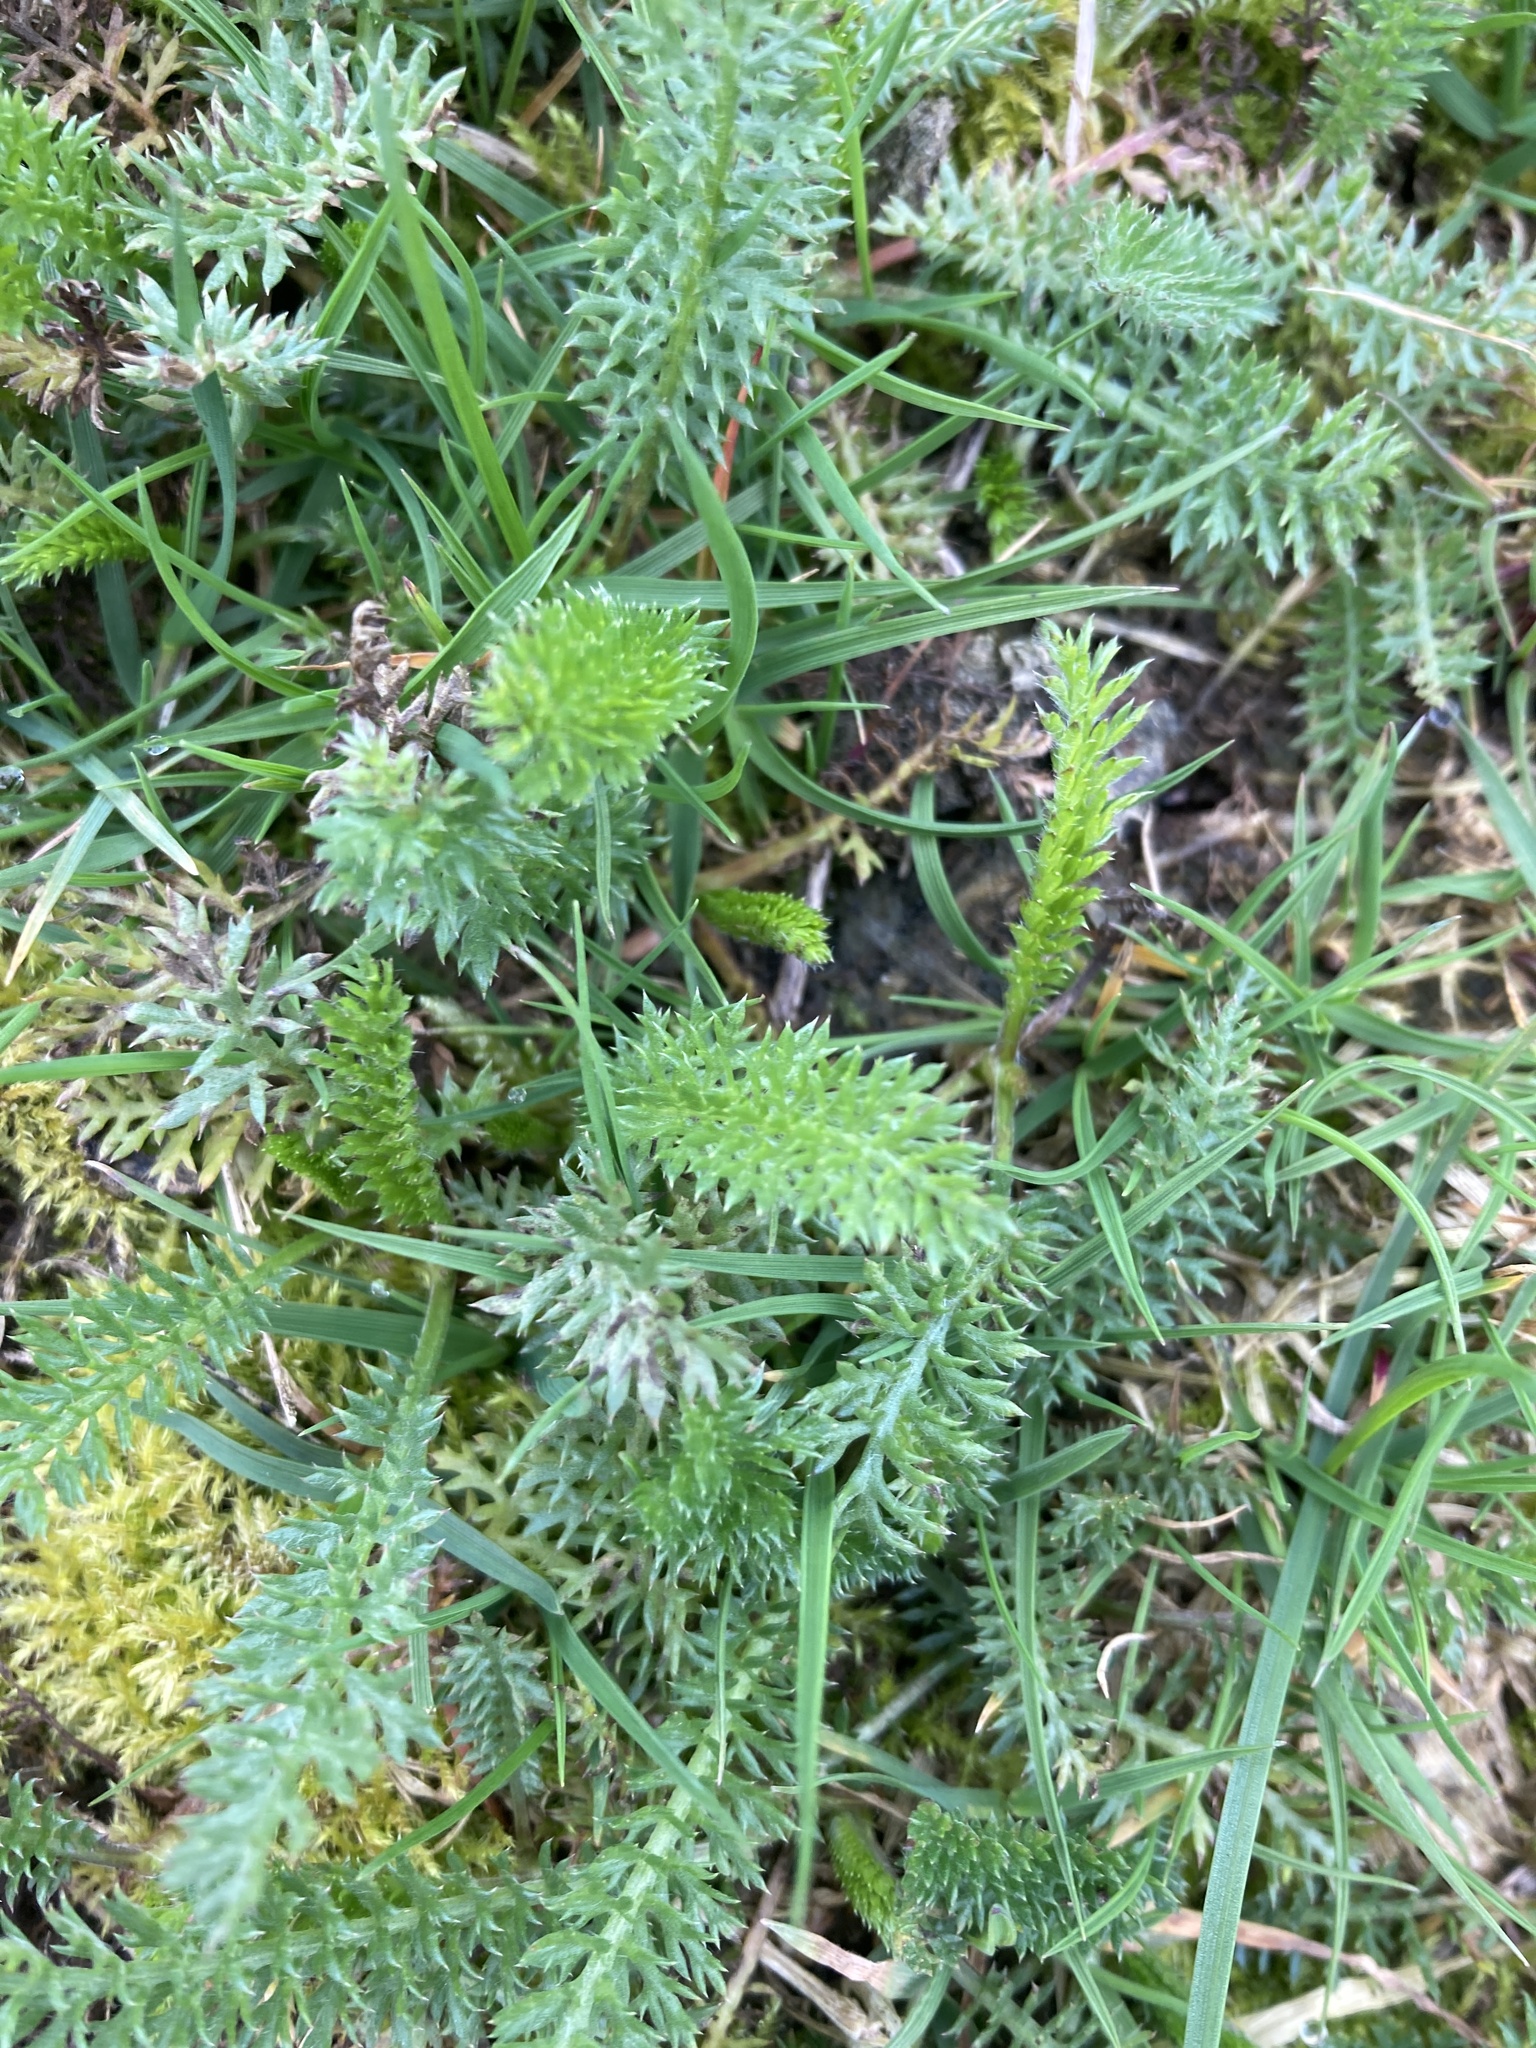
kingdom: Plantae
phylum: Tracheophyta
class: Magnoliopsida
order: Asterales
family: Asteraceae
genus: Achillea
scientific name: Achillea millefolium
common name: Yarrow
